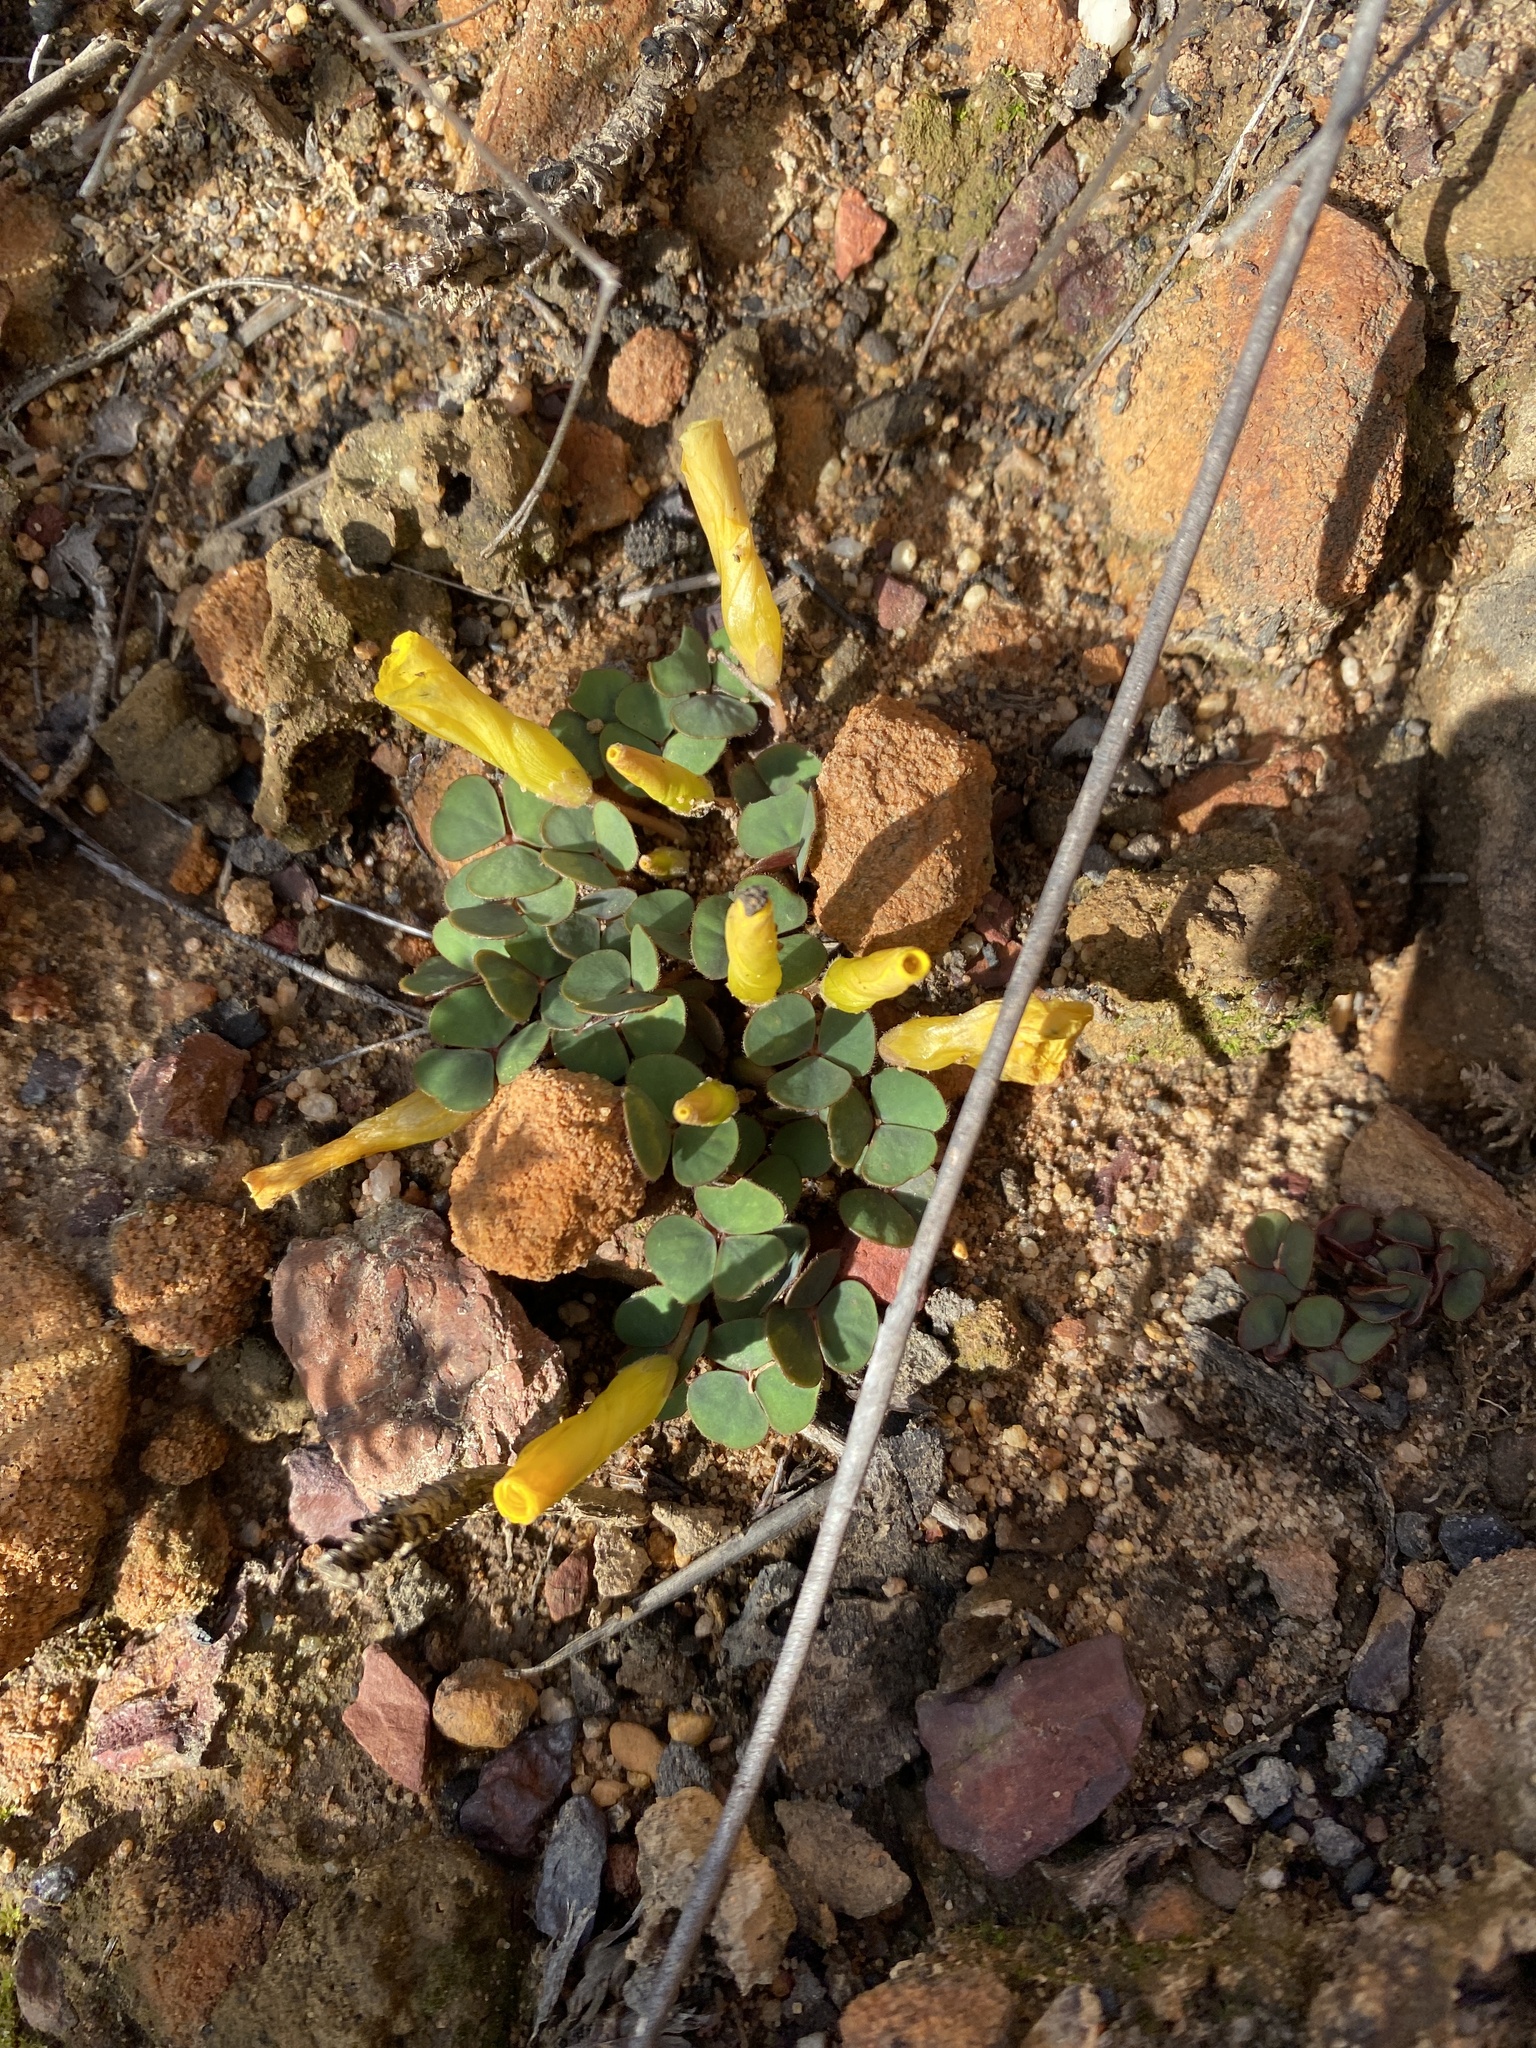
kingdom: Plantae
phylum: Tracheophyta
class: Magnoliopsida
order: Oxalidales
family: Oxalidaceae
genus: Oxalis
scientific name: Oxalis luteola
